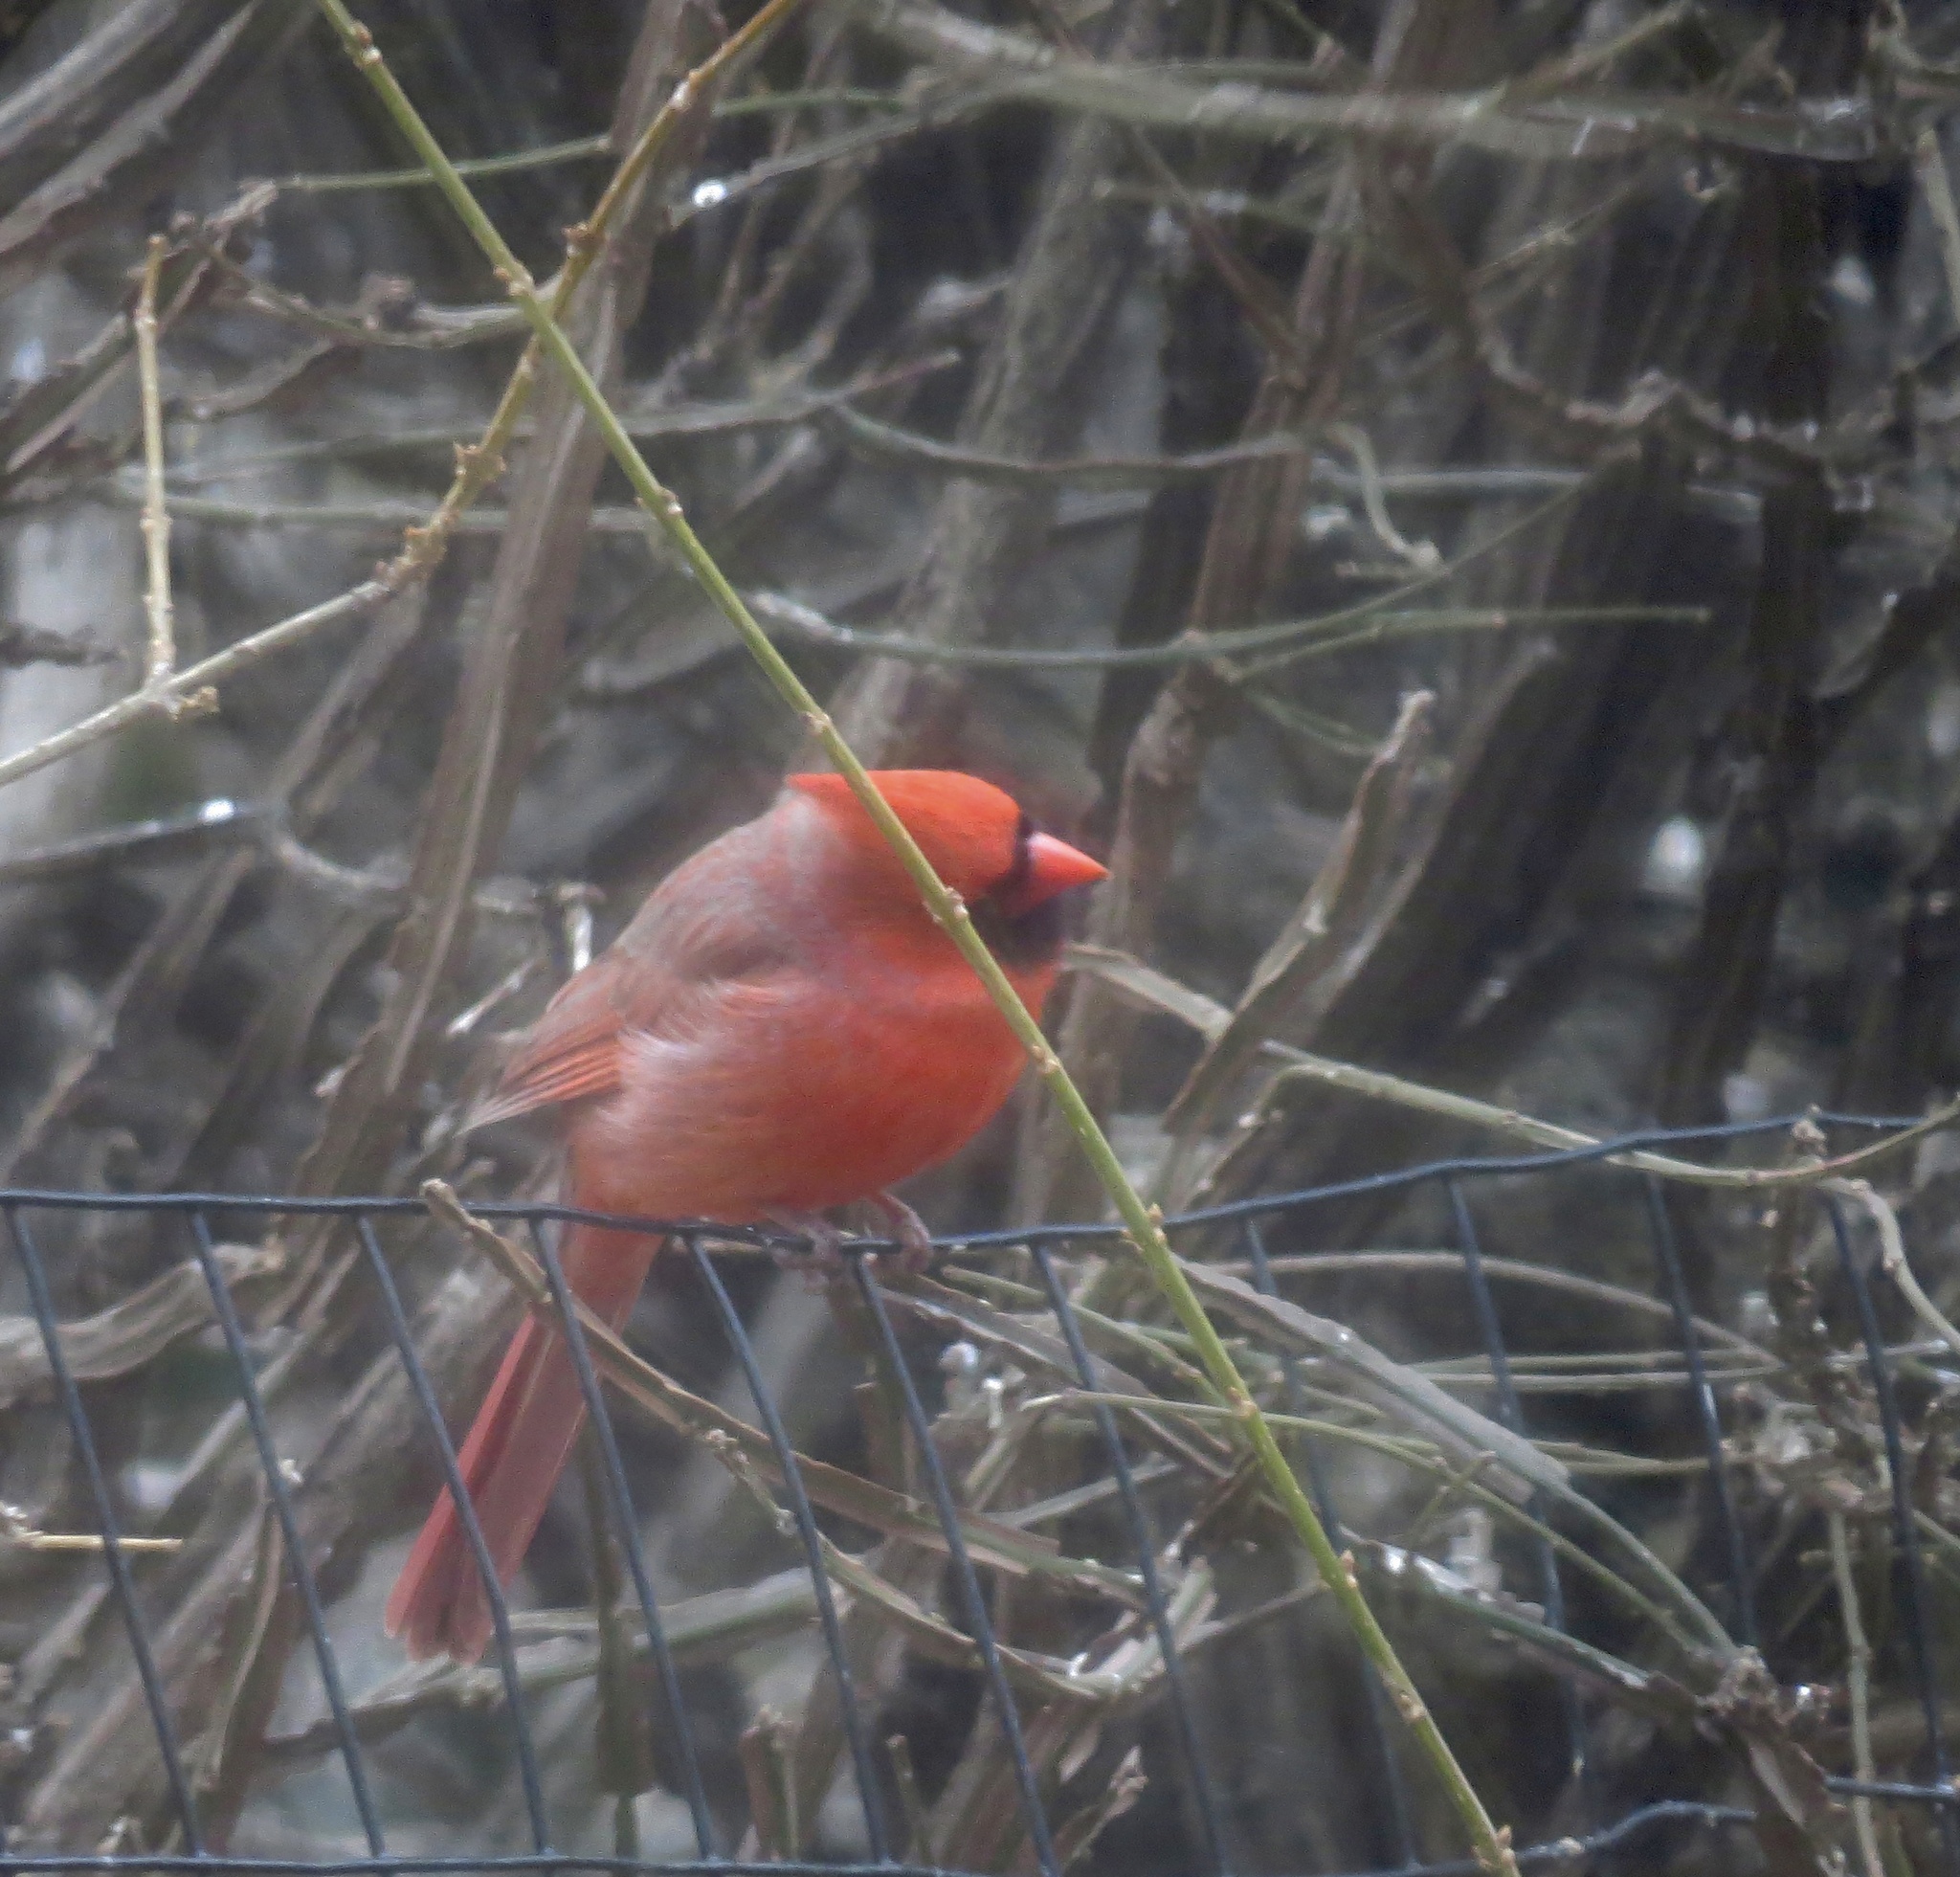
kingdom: Animalia
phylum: Chordata
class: Aves
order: Passeriformes
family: Cardinalidae
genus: Cardinalis
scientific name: Cardinalis cardinalis
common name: Northern cardinal
